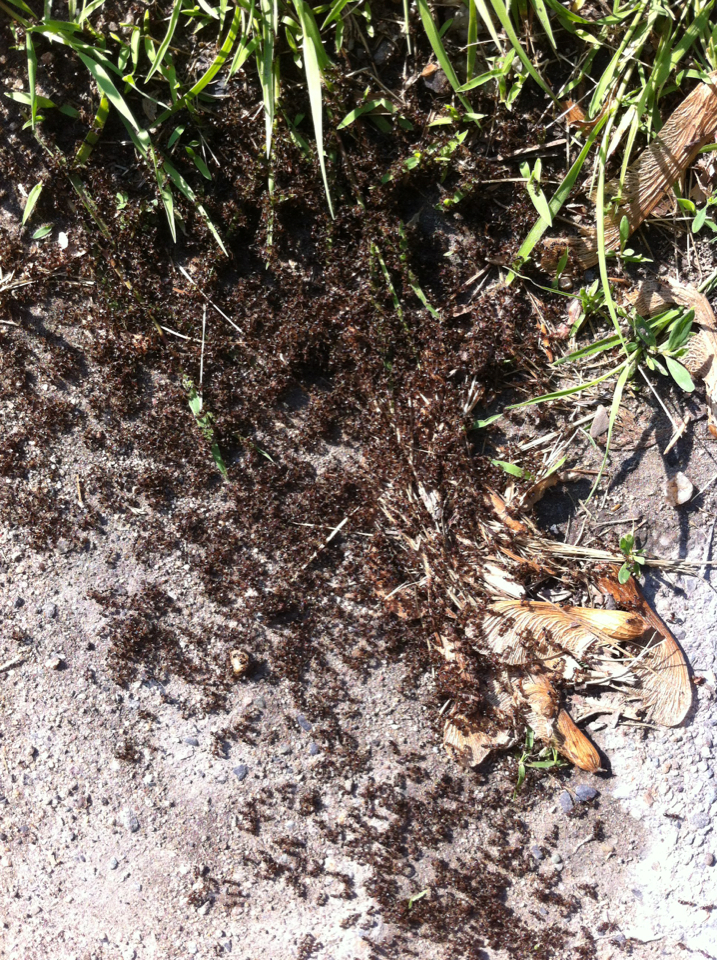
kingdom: Animalia
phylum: Arthropoda
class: Insecta
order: Hymenoptera
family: Formicidae
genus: Tetramorium
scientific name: Tetramorium immigrans
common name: Pavement ant
